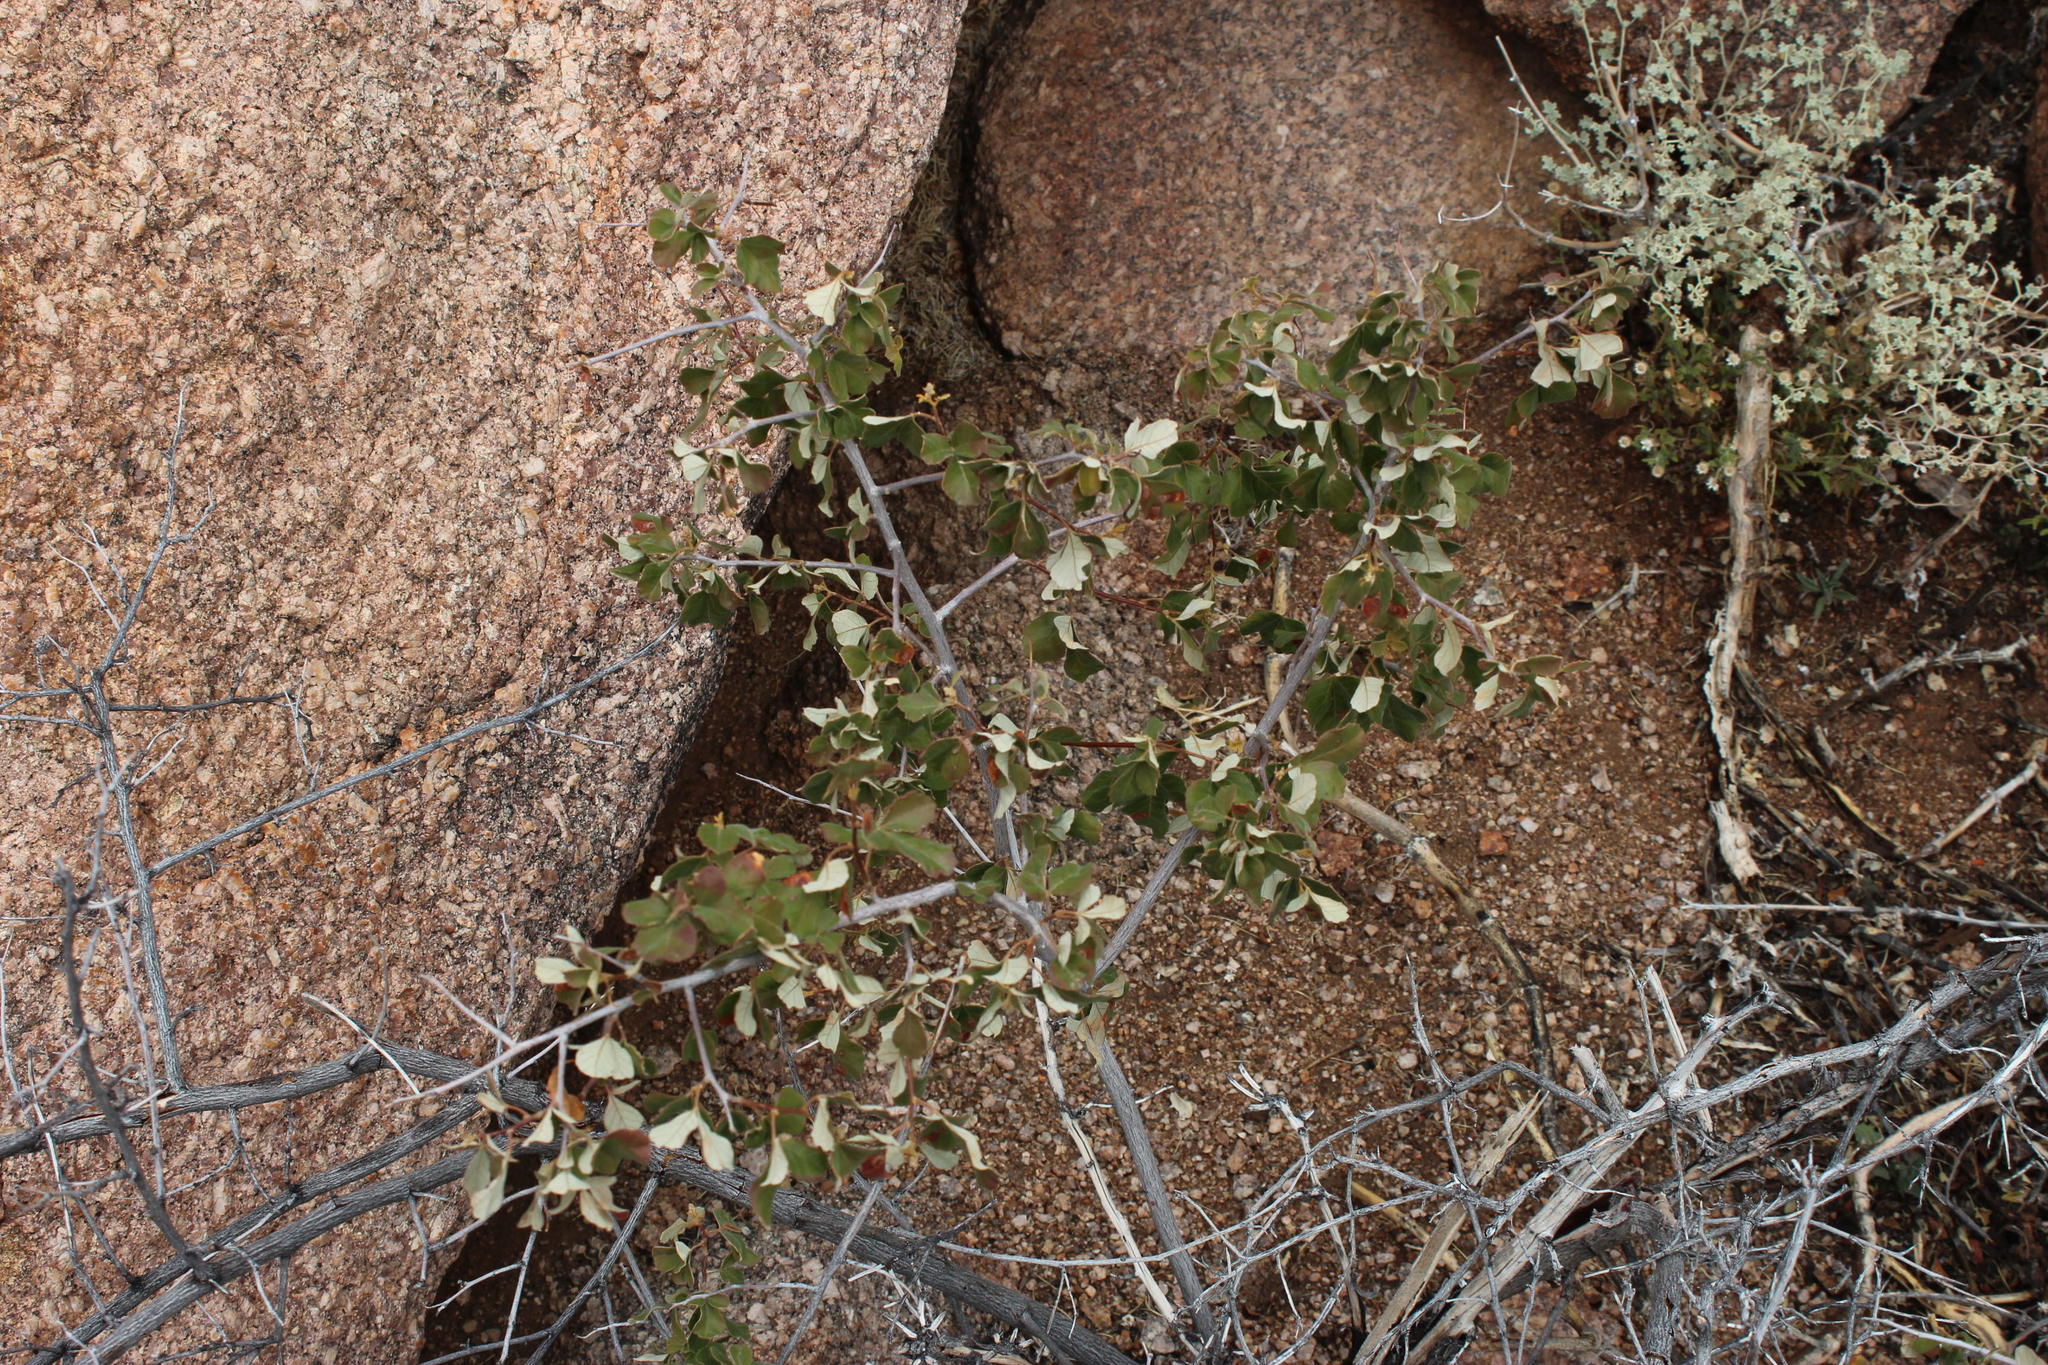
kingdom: Plantae
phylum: Tracheophyta
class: Magnoliopsida
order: Sapindales
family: Anacardiaceae
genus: Searsia
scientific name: Searsia populifolia
